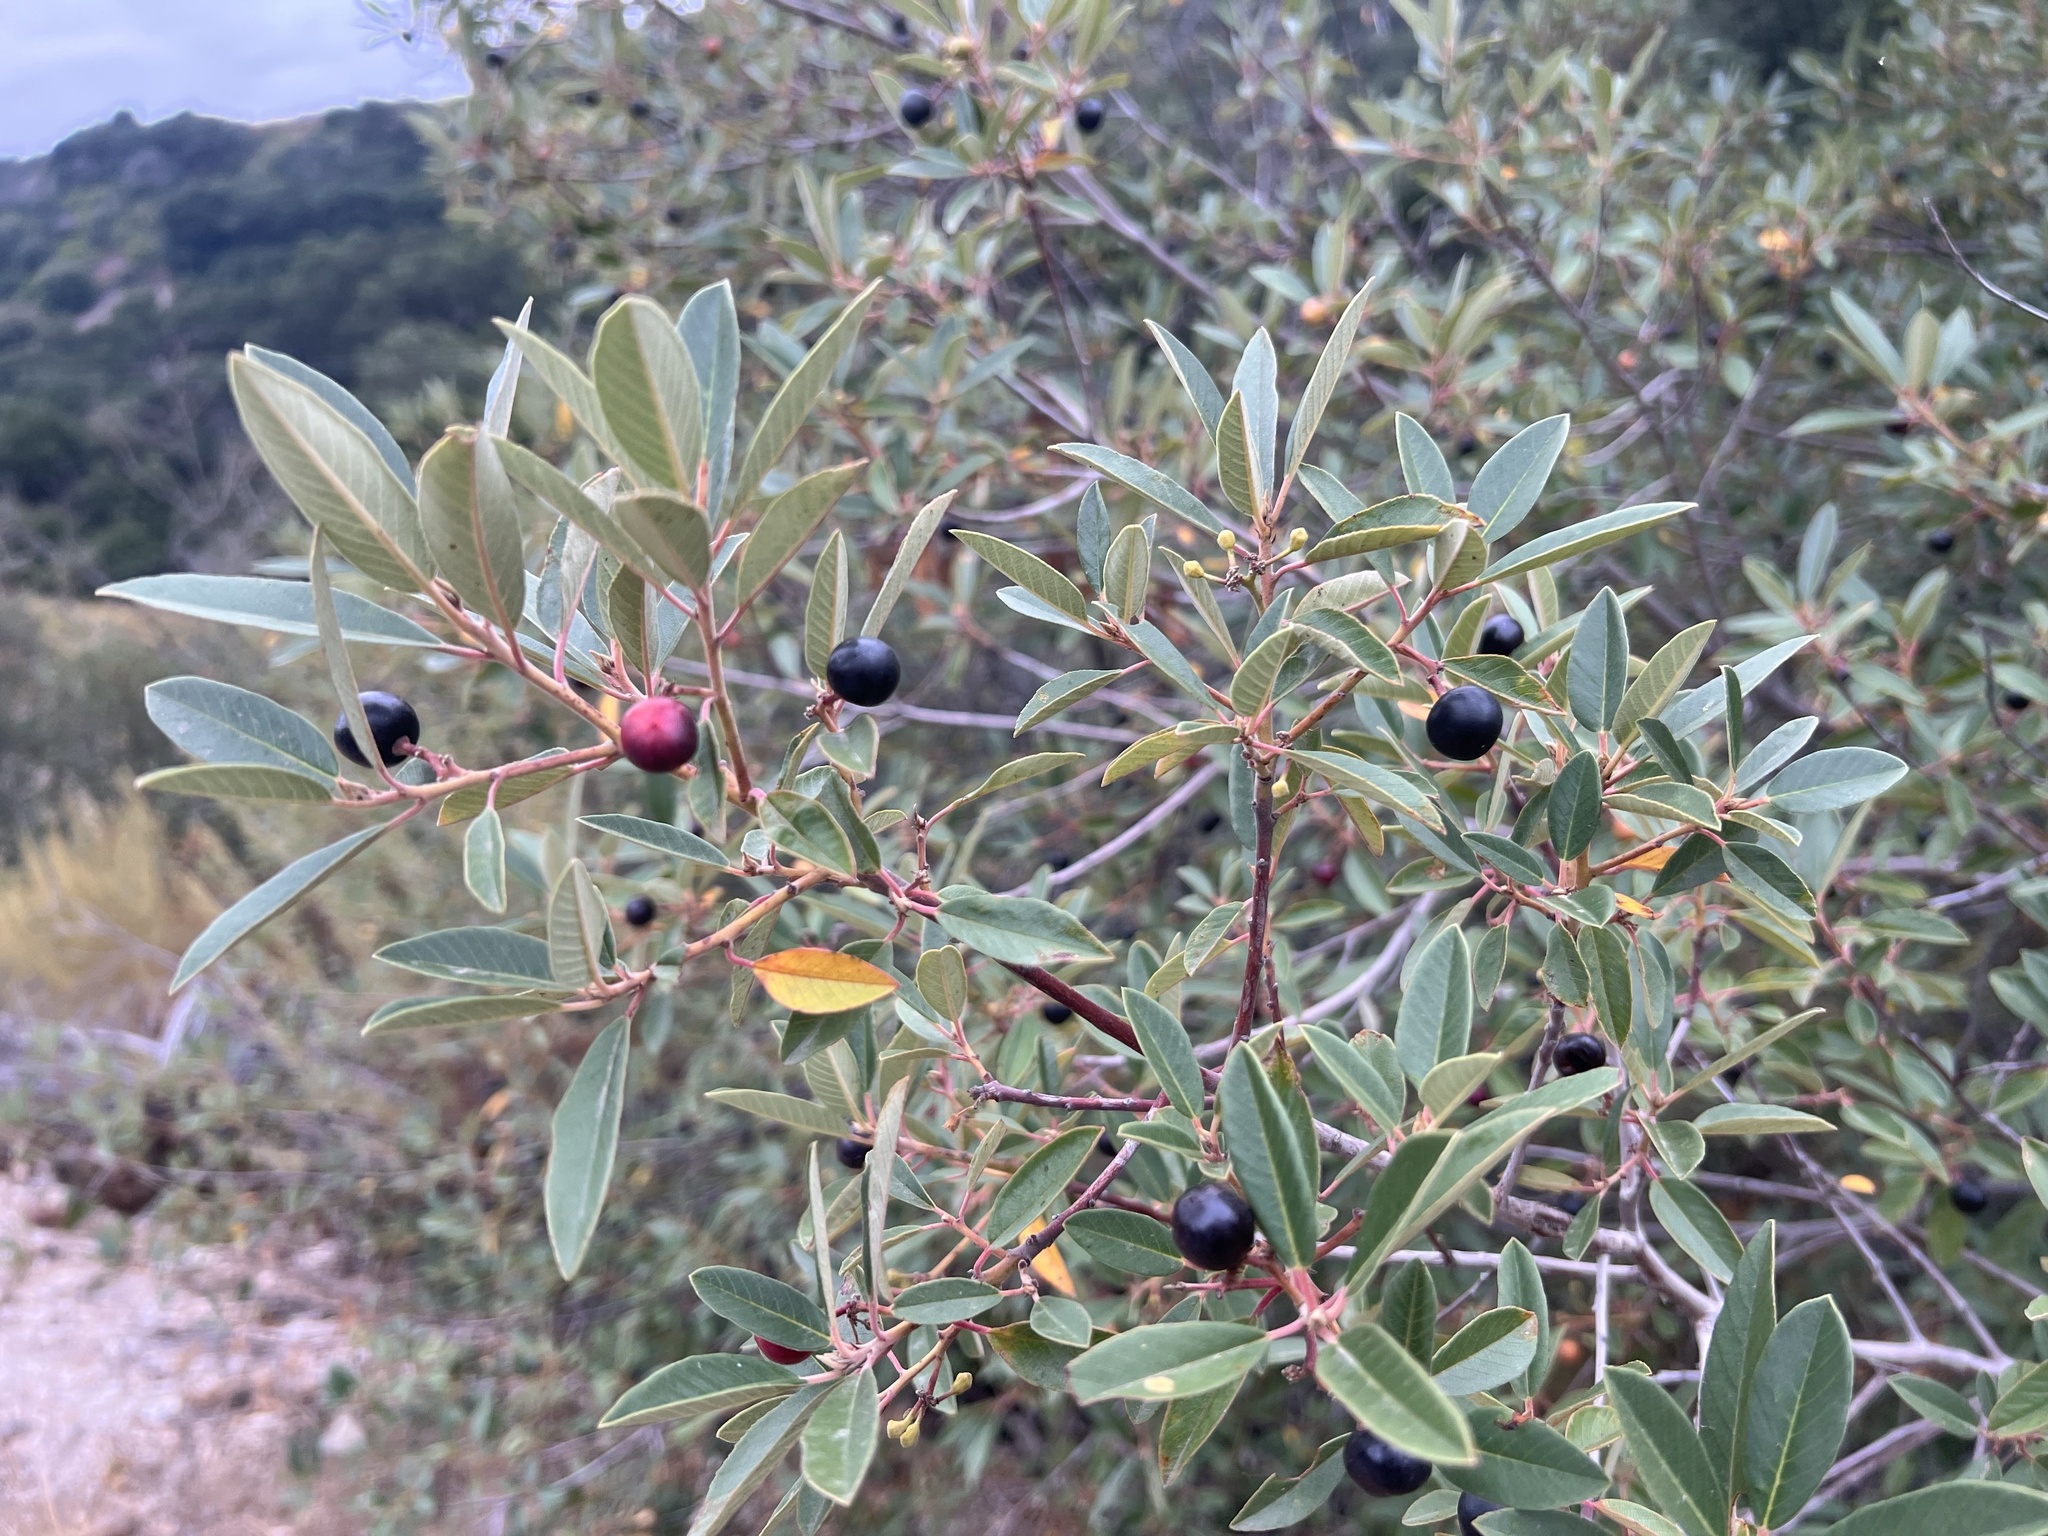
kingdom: Plantae
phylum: Tracheophyta
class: Magnoliopsida
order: Rosales
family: Rhamnaceae
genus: Frangula
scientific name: Frangula californica
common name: California buckthorn
